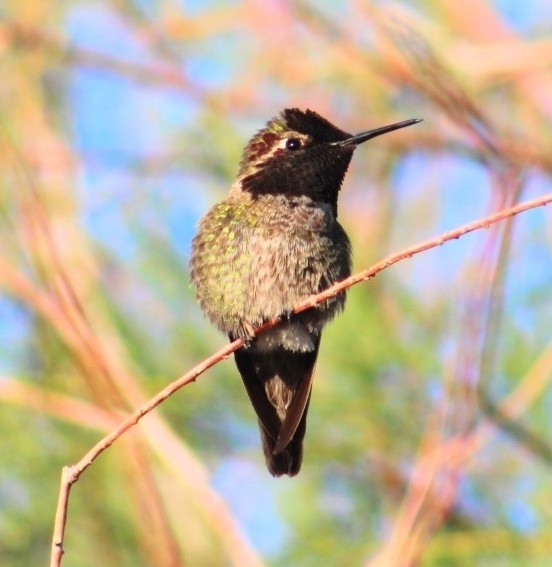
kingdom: Animalia
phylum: Chordata
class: Aves
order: Apodiformes
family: Trochilidae
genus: Calypte
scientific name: Calypte anna
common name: Anna's hummingbird
